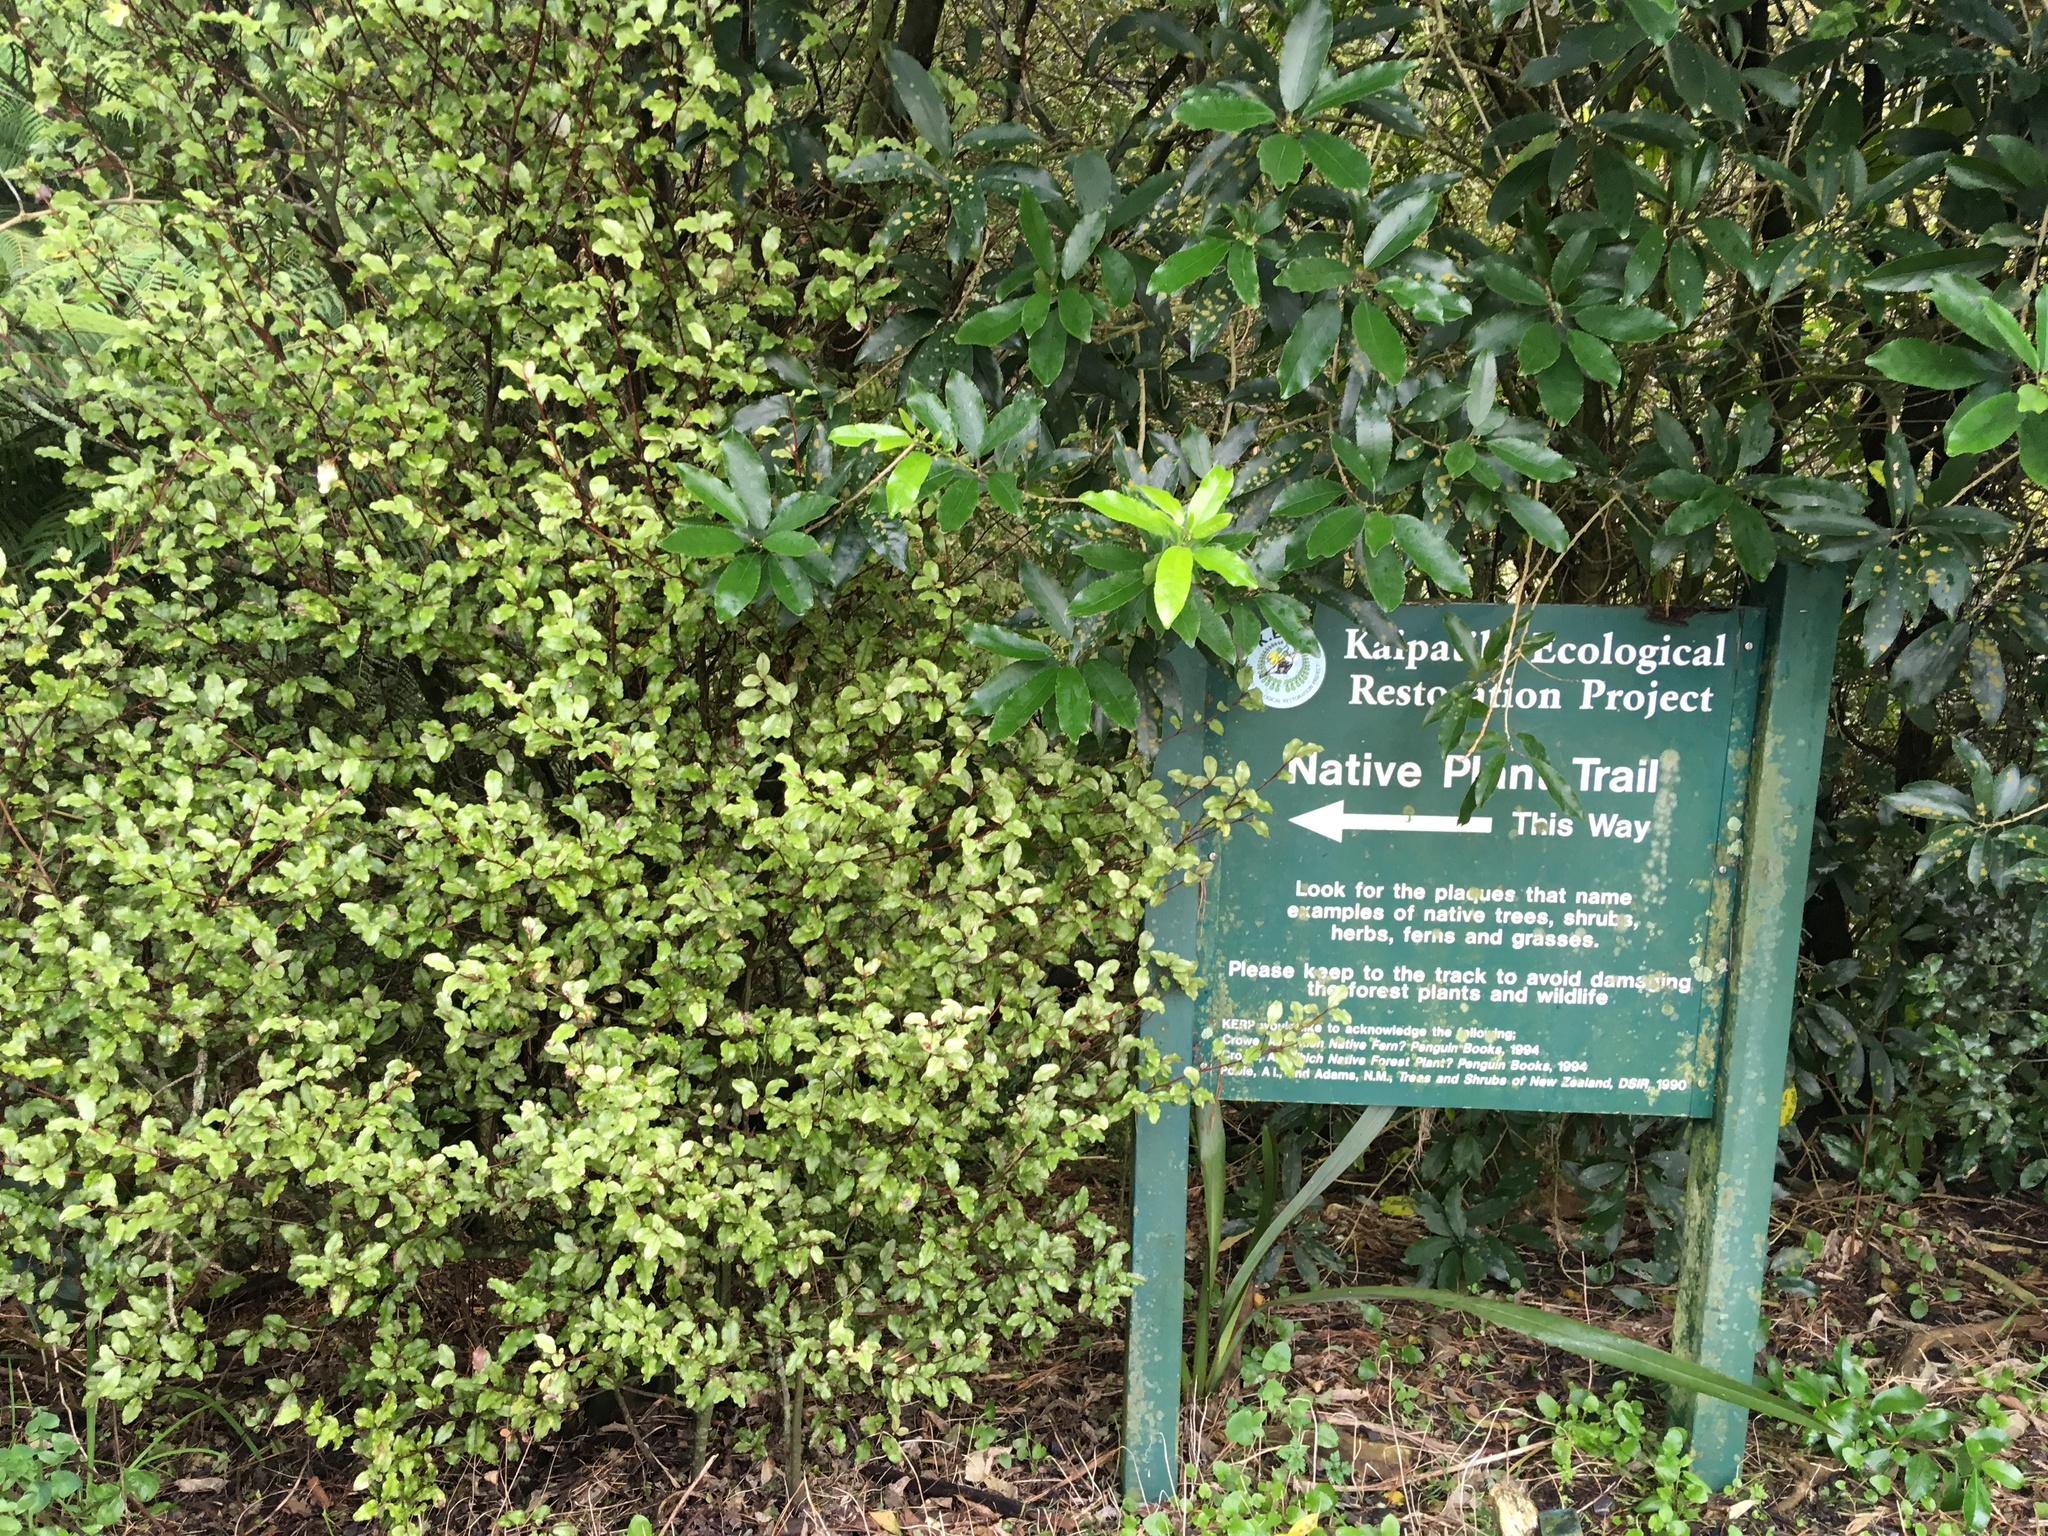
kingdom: Plantae
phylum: Tracheophyta
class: Magnoliopsida
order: Ericales
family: Primulaceae
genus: Myrsine
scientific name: Myrsine australis
